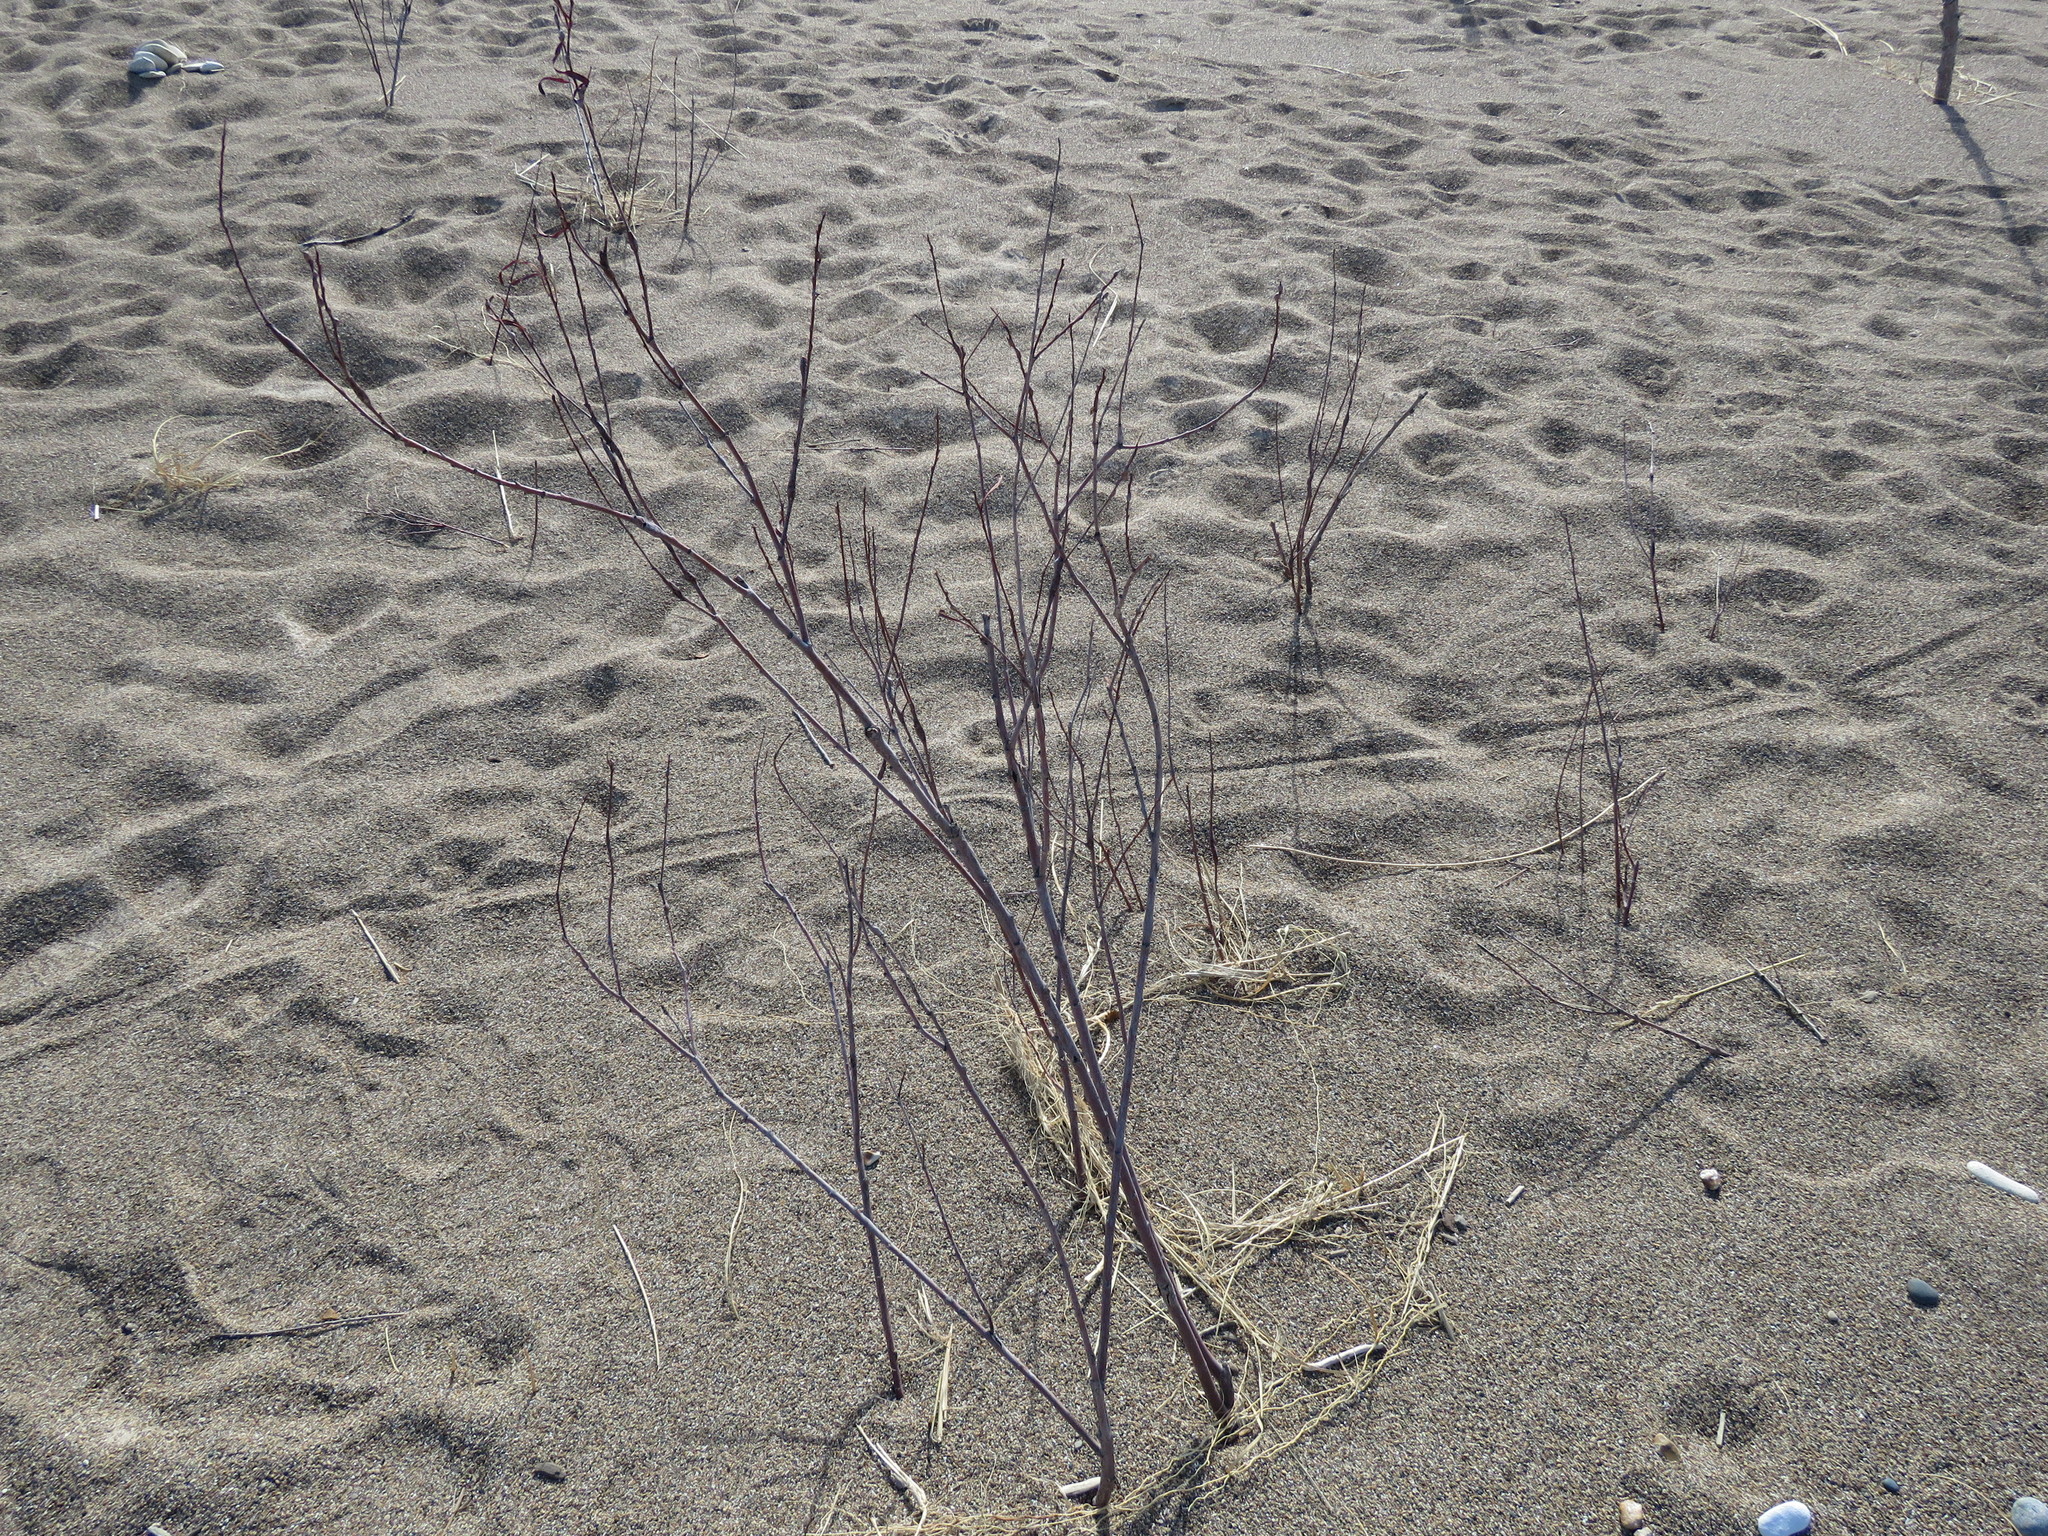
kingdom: Plantae
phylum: Tracheophyta
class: Magnoliopsida
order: Malpighiales
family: Salicaceae
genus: Salix
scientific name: Salix interior
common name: Sandbar willow
